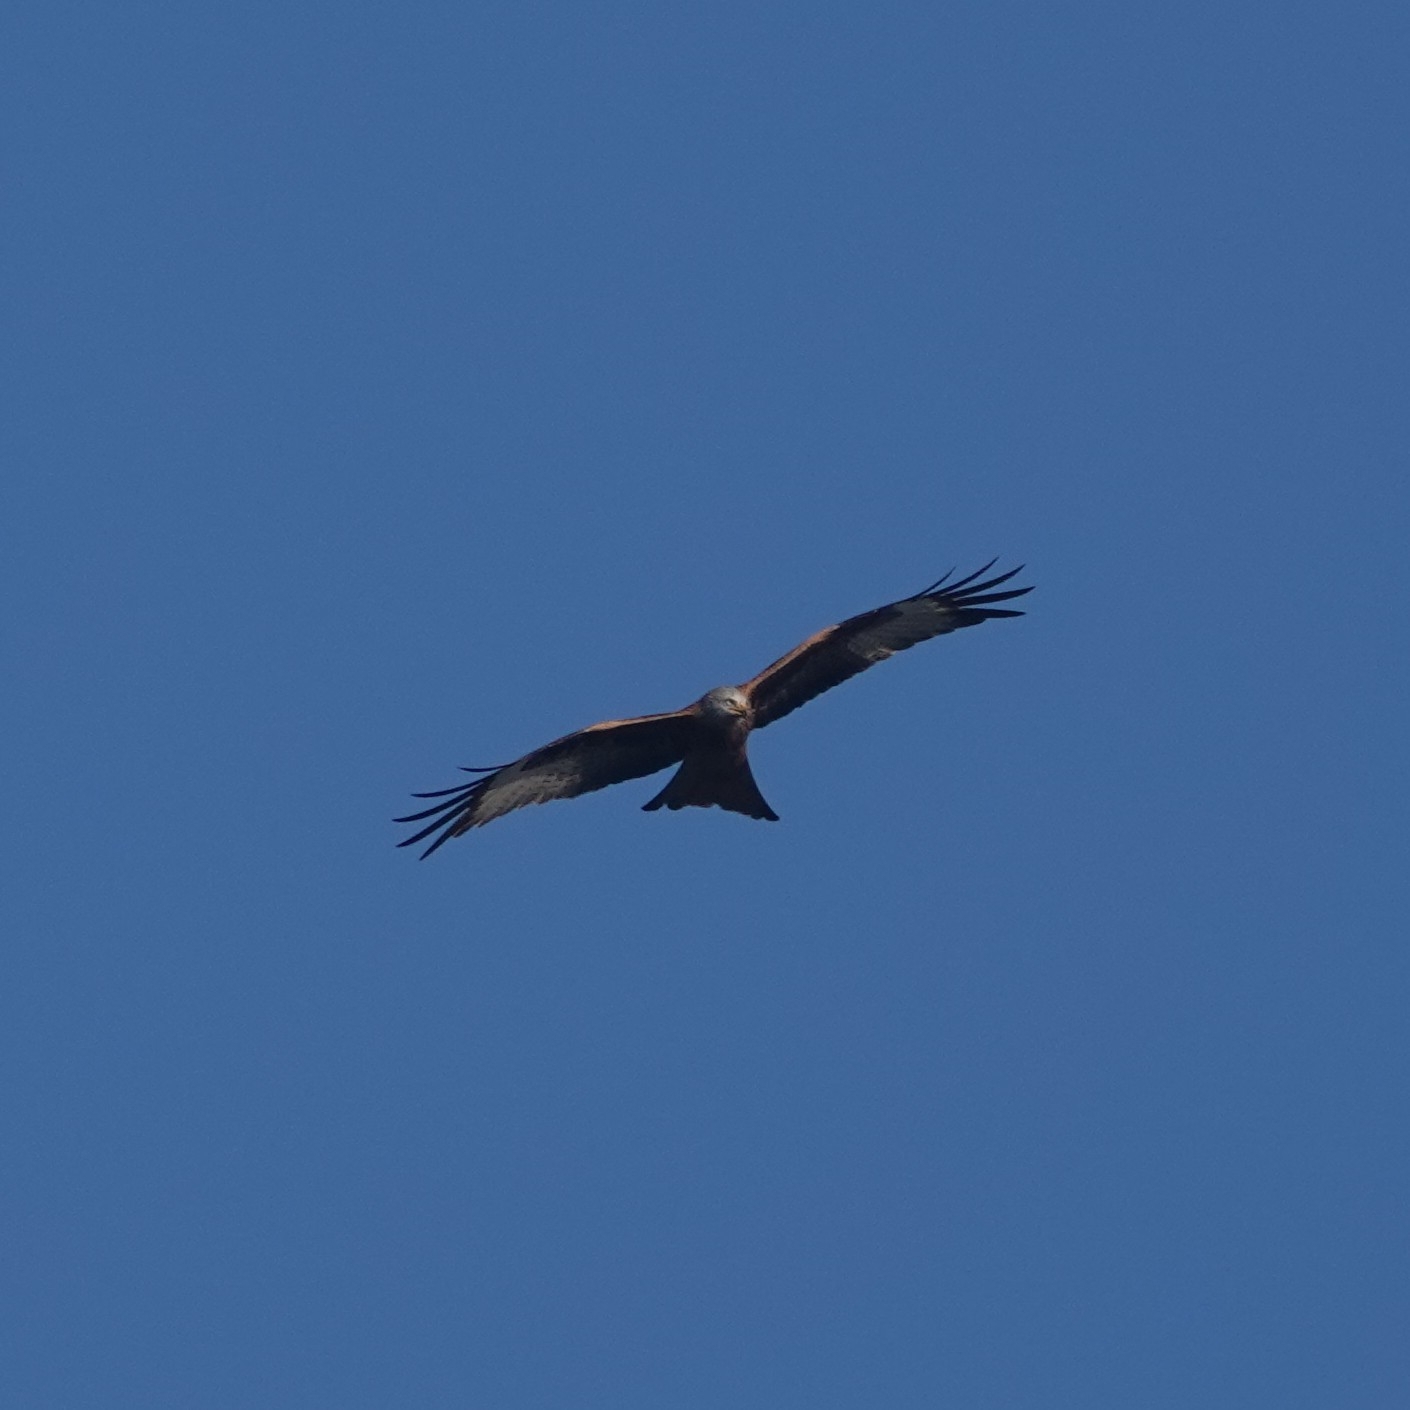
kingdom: Animalia
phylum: Chordata
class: Aves
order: Accipitriformes
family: Accipitridae
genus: Milvus
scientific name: Milvus milvus
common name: Red kite
